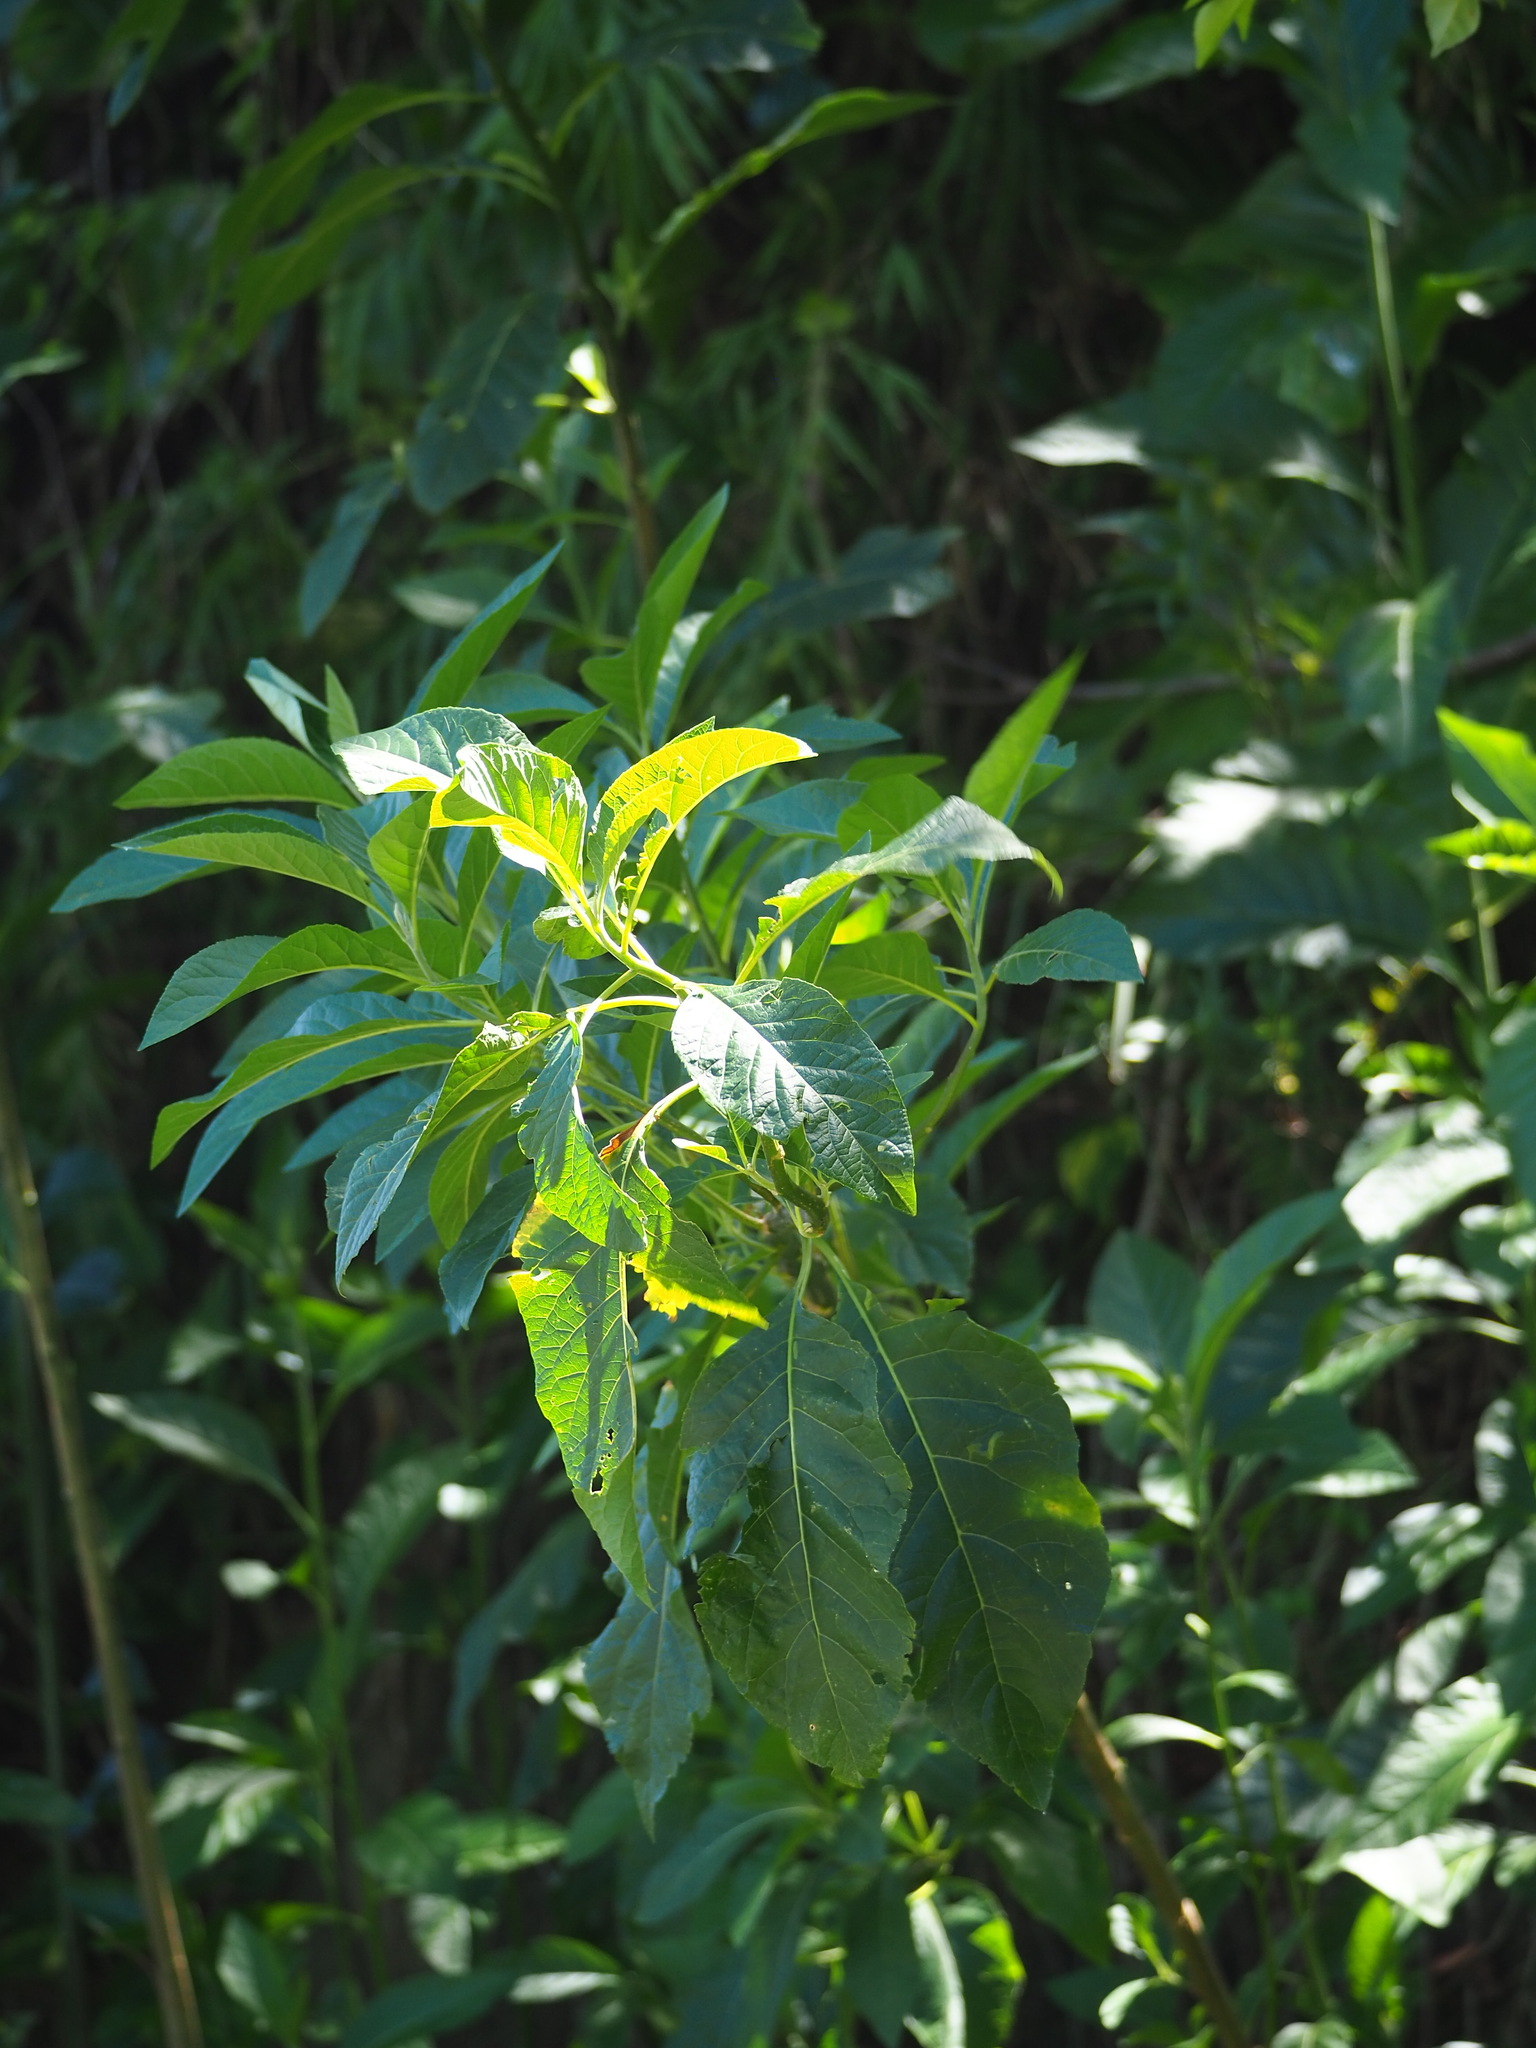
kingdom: Plantae
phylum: Tracheophyta
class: Magnoliopsida
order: Asterales
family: Asteraceae
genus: Gymnanthemum
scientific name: Gymnanthemum amygdalinum
